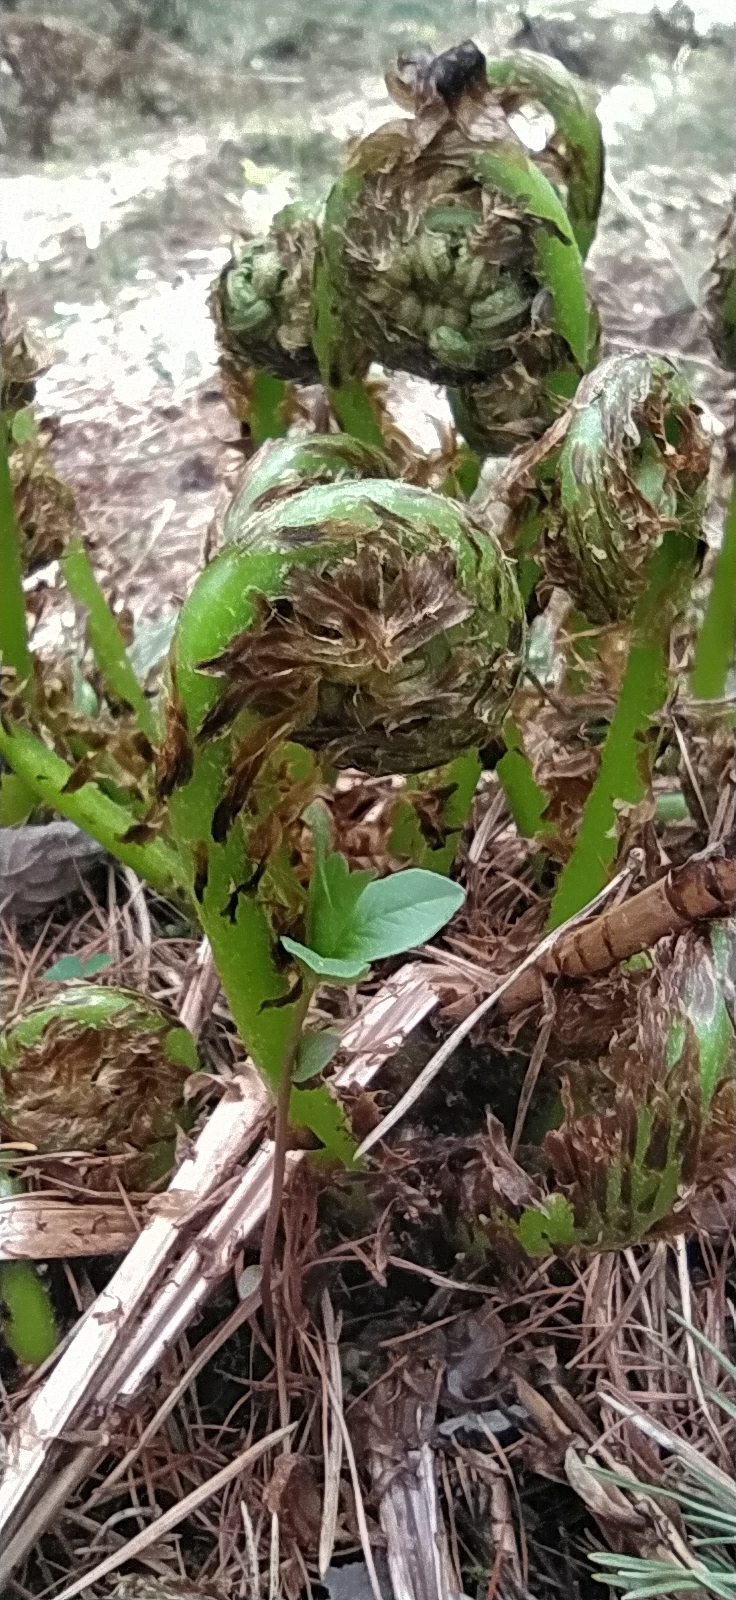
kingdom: Plantae
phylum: Tracheophyta
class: Polypodiopsida
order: Polypodiales
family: Athyriaceae
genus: Athyrium
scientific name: Athyrium filix-femina
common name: Lady fern
